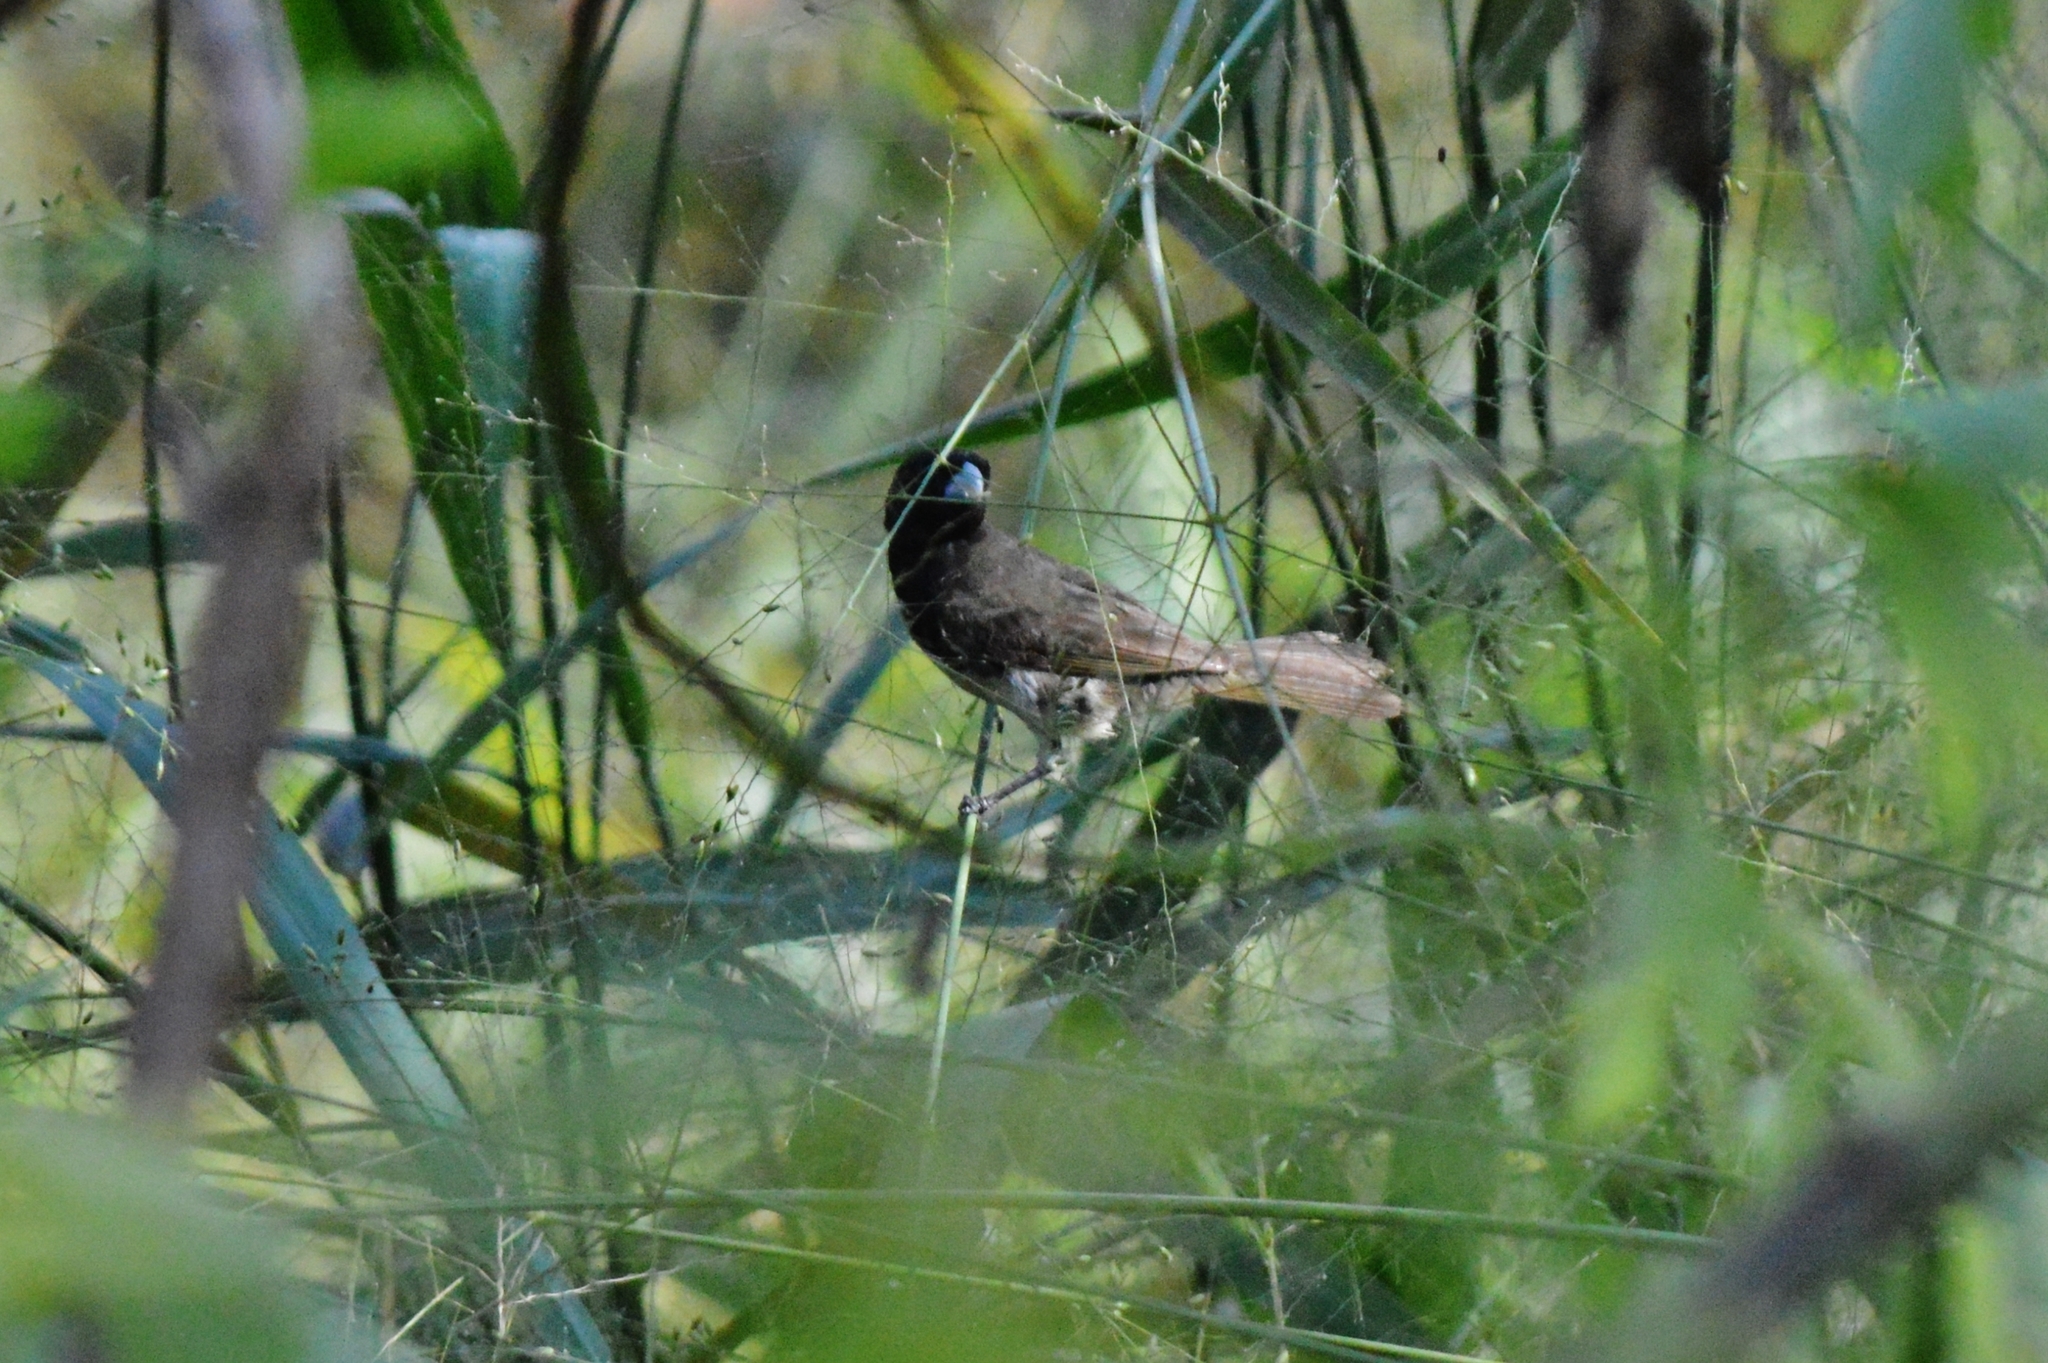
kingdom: Animalia
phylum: Chordata
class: Aves
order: Passeriformes
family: Thraupidae
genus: Sporophila
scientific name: Sporophila nigricollis
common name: Yellow-bellied seedeater
